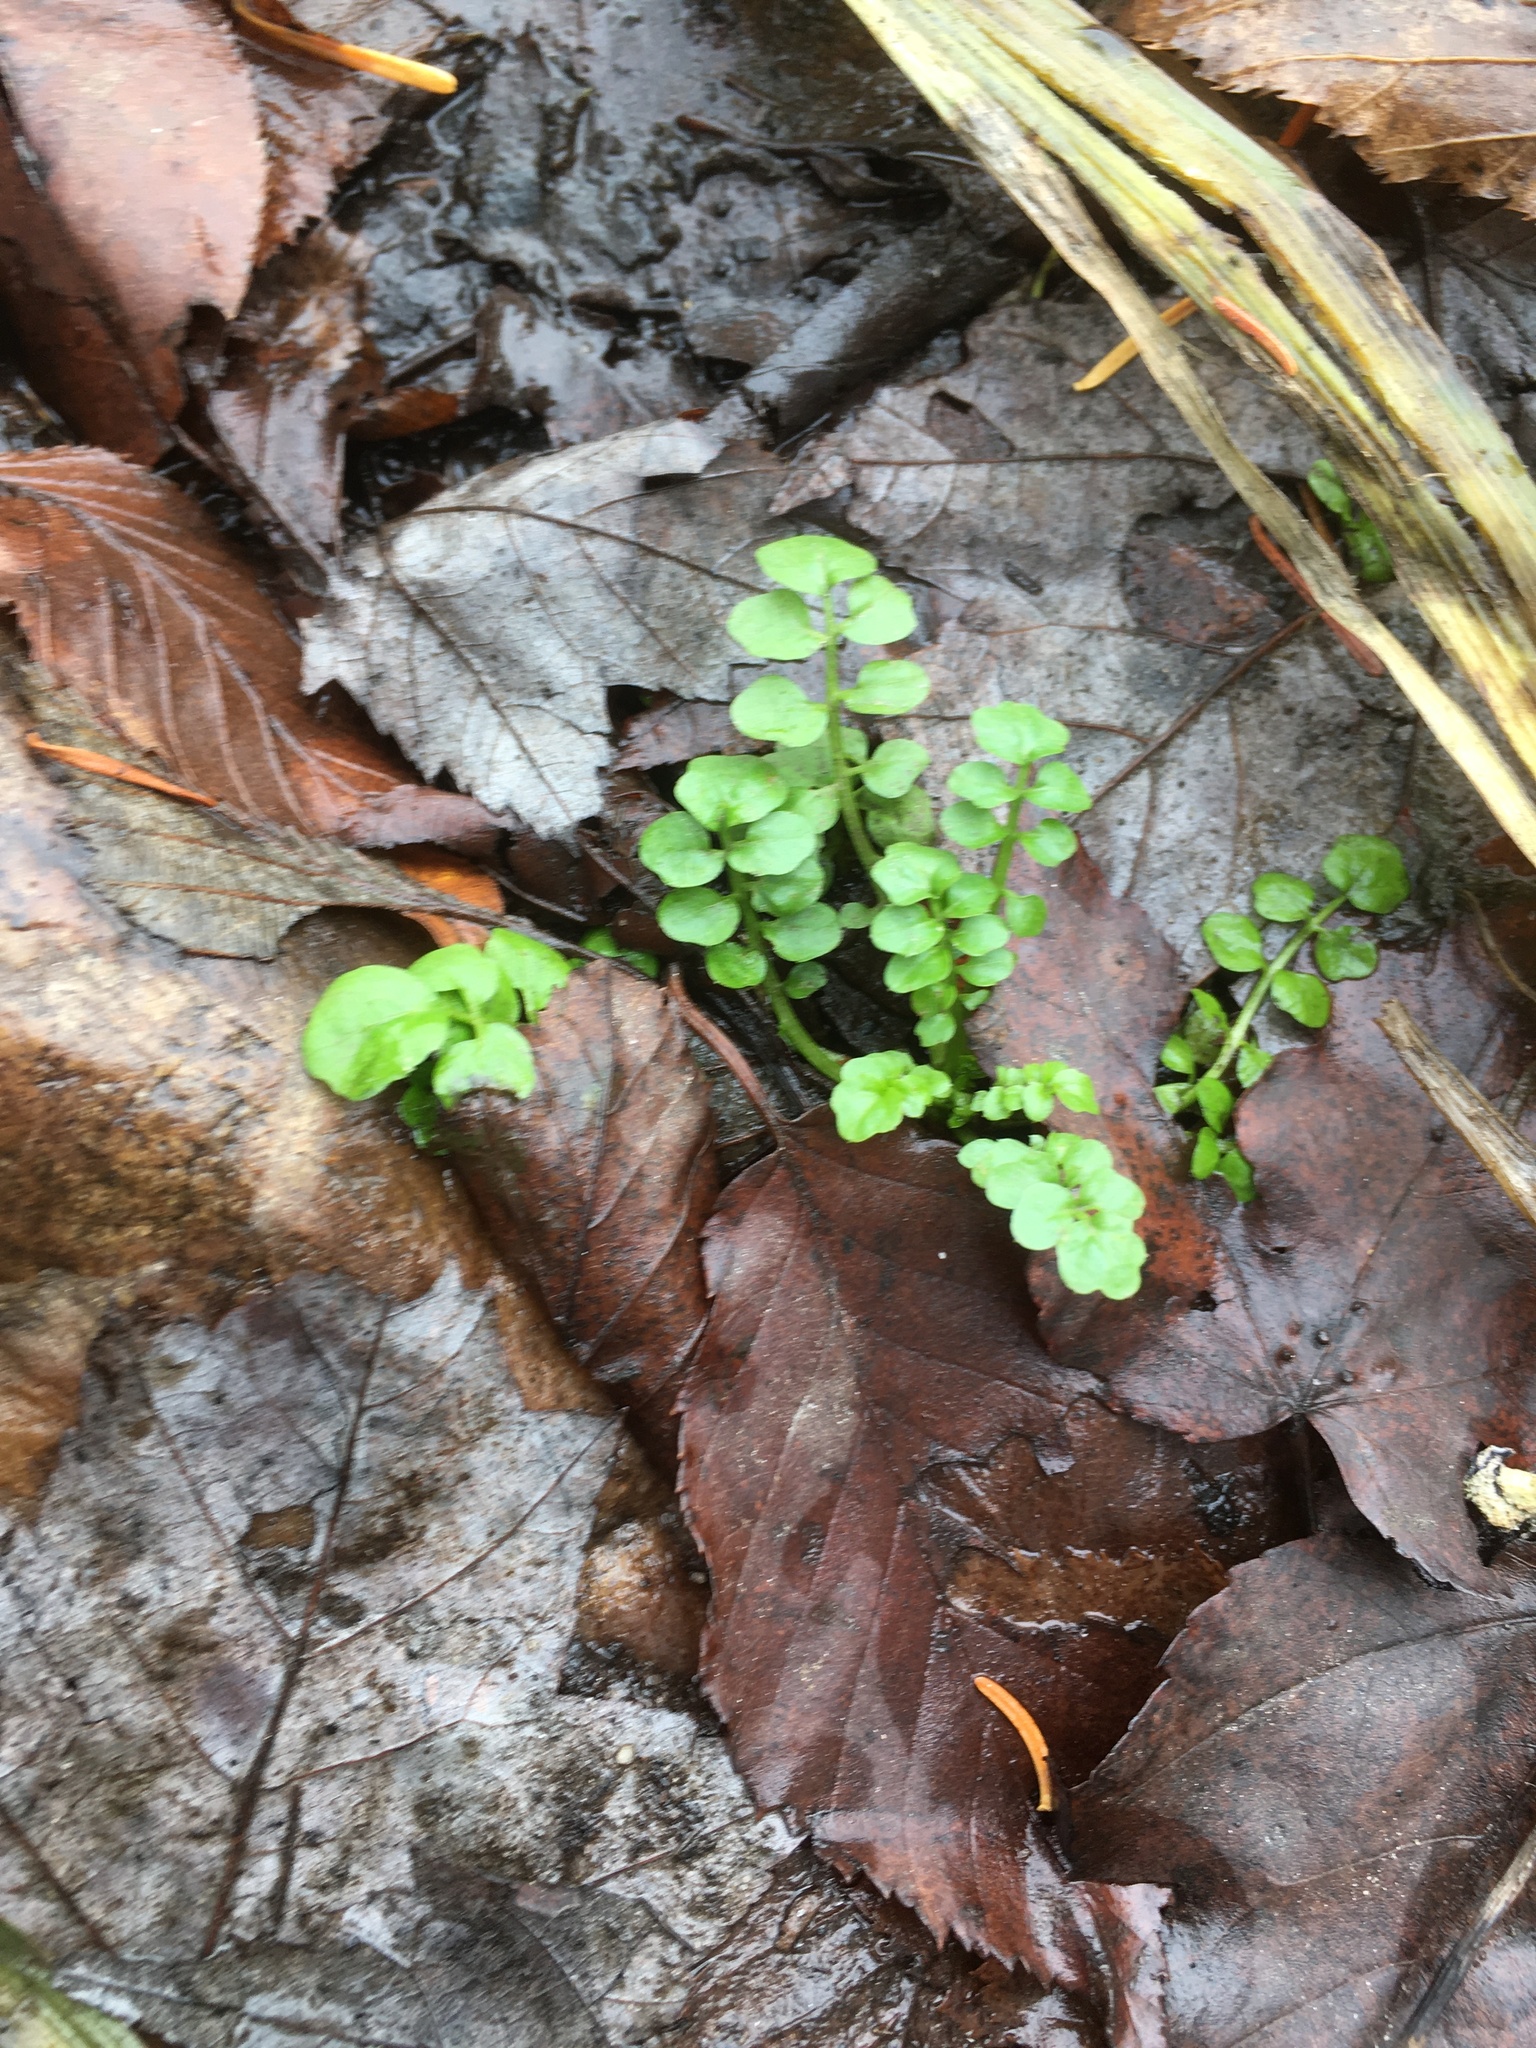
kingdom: Plantae
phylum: Tracheophyta
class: Magnoliopsida
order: Brassicales
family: Brassicaceae
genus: Cardamine
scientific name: Cardamine pensylvanica
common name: Pennsylvania bittercress
